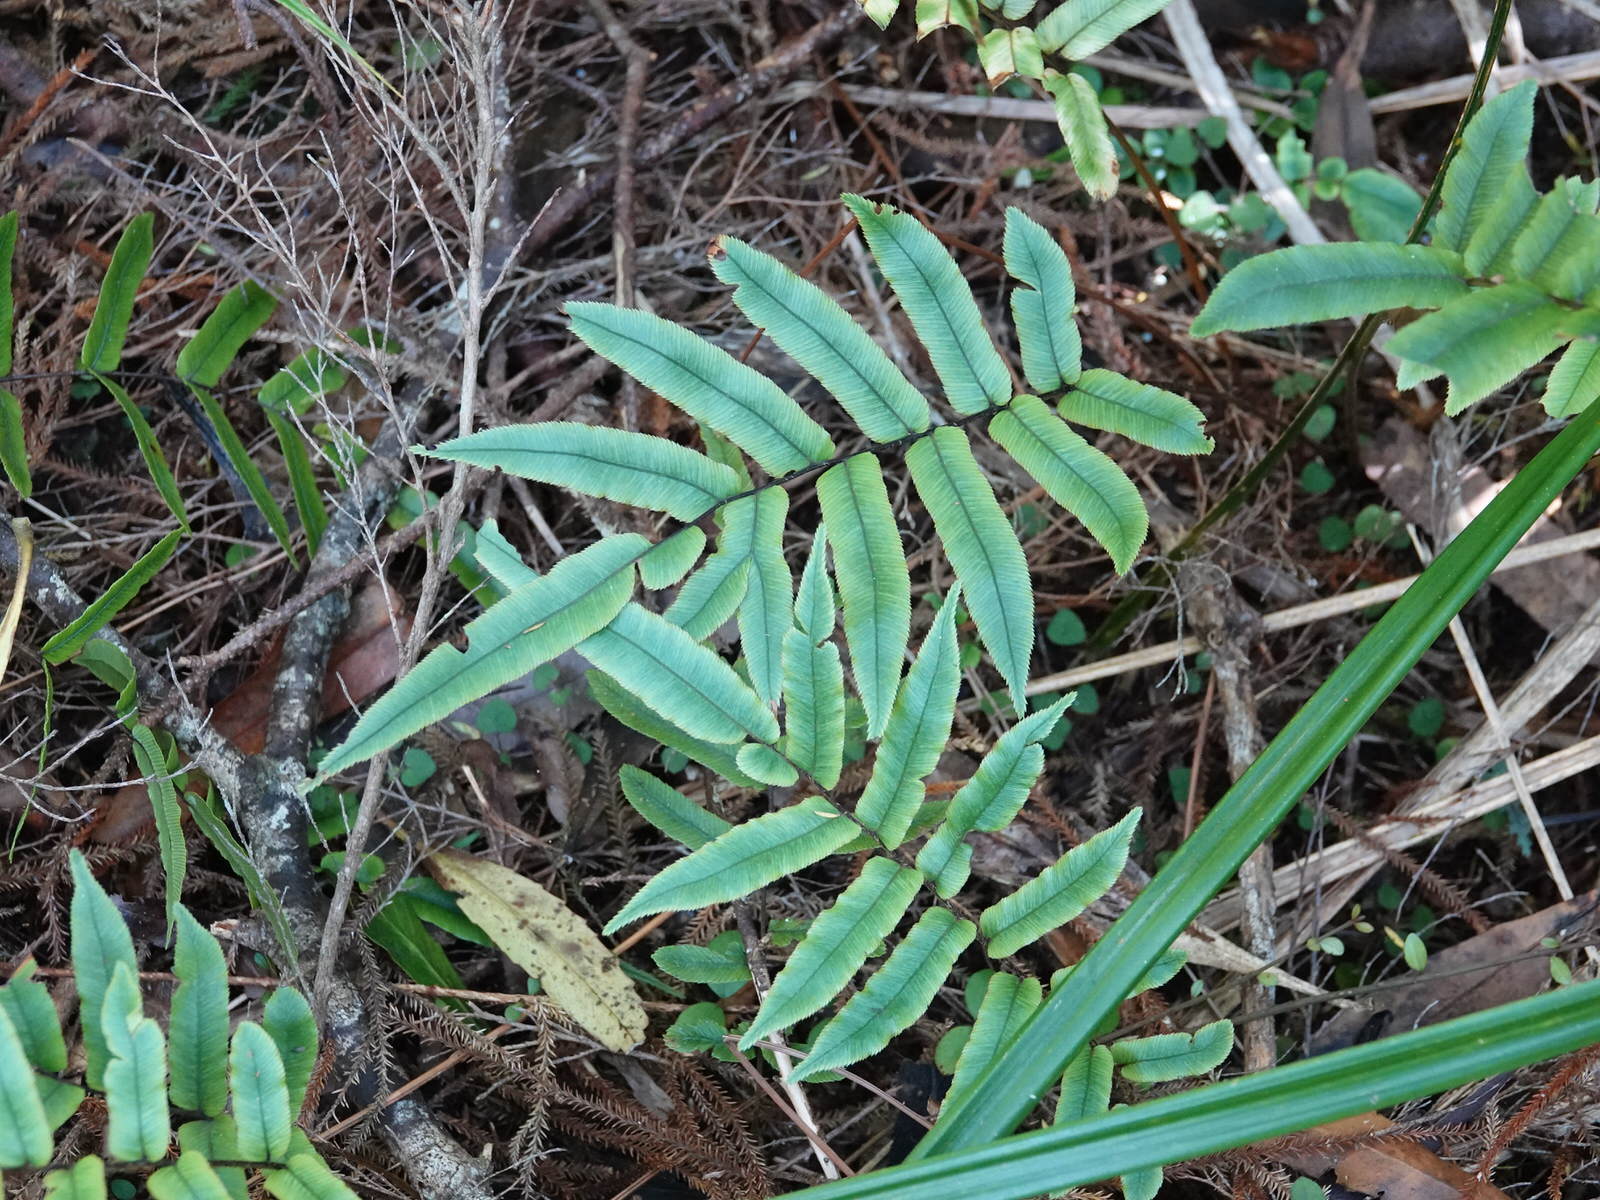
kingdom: Plantae
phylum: Tracheophyta
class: Polypodiopsida
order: Polypodiales
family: Blechnaceae
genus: Parablechnum
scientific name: Parablechnum procerum
